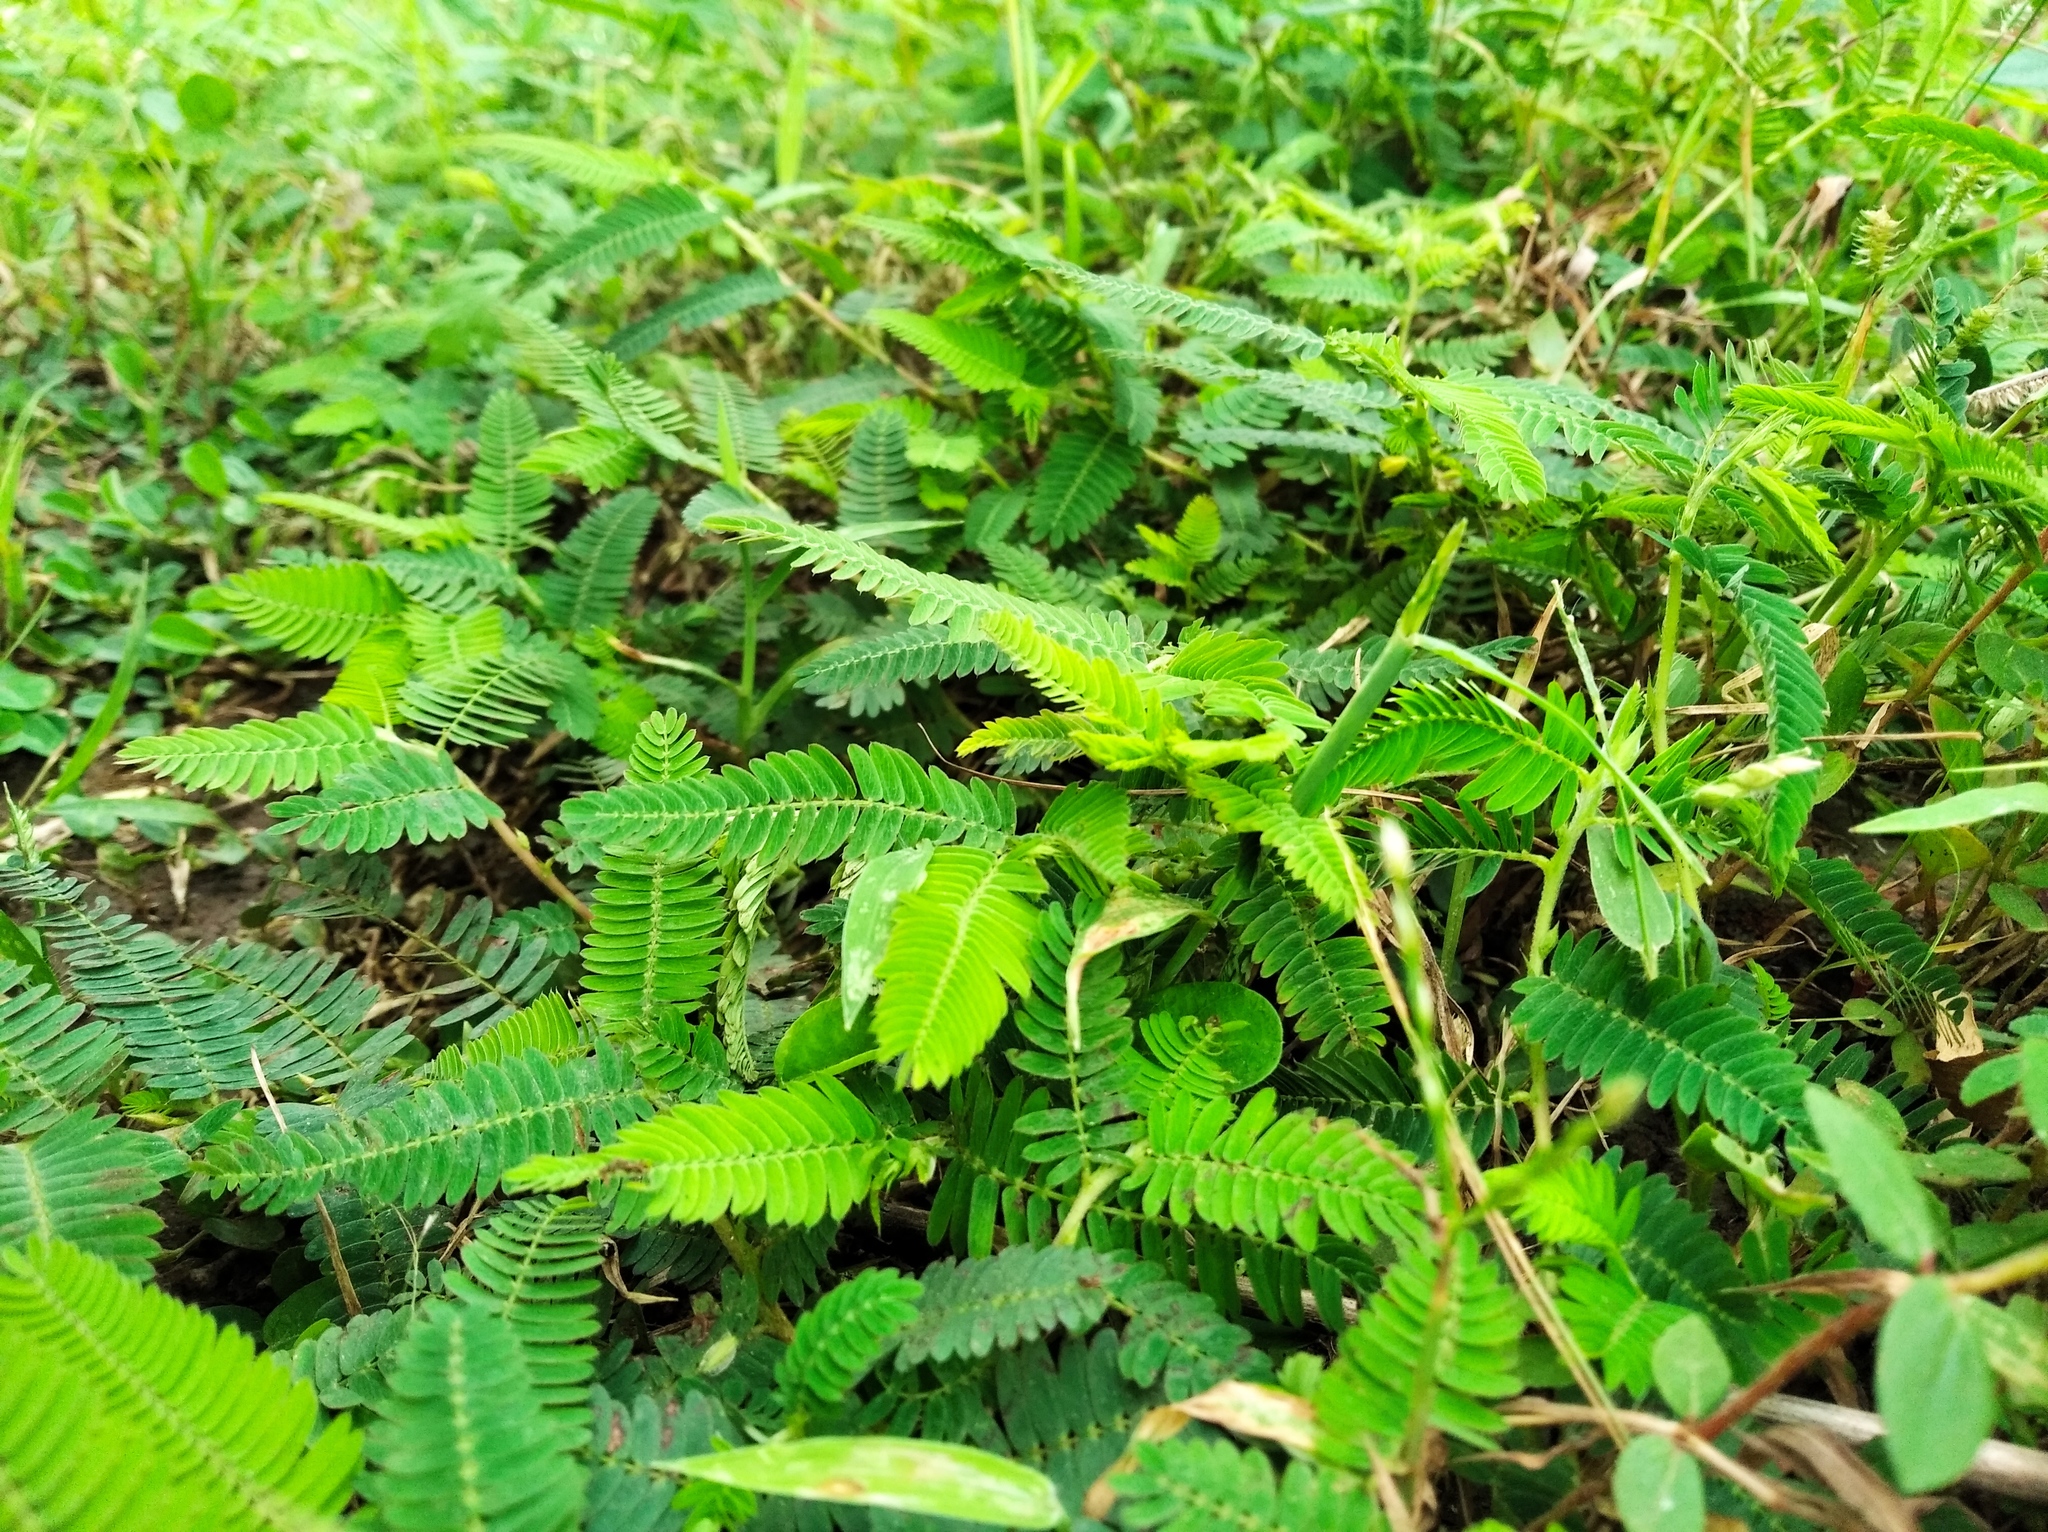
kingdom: Plantae
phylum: Tracheophyta
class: Magnoliopsida
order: Fabales
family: Fabaceae
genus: Chamaecrista
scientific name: Chamaecrista nictitans
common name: Sensitive cassia
